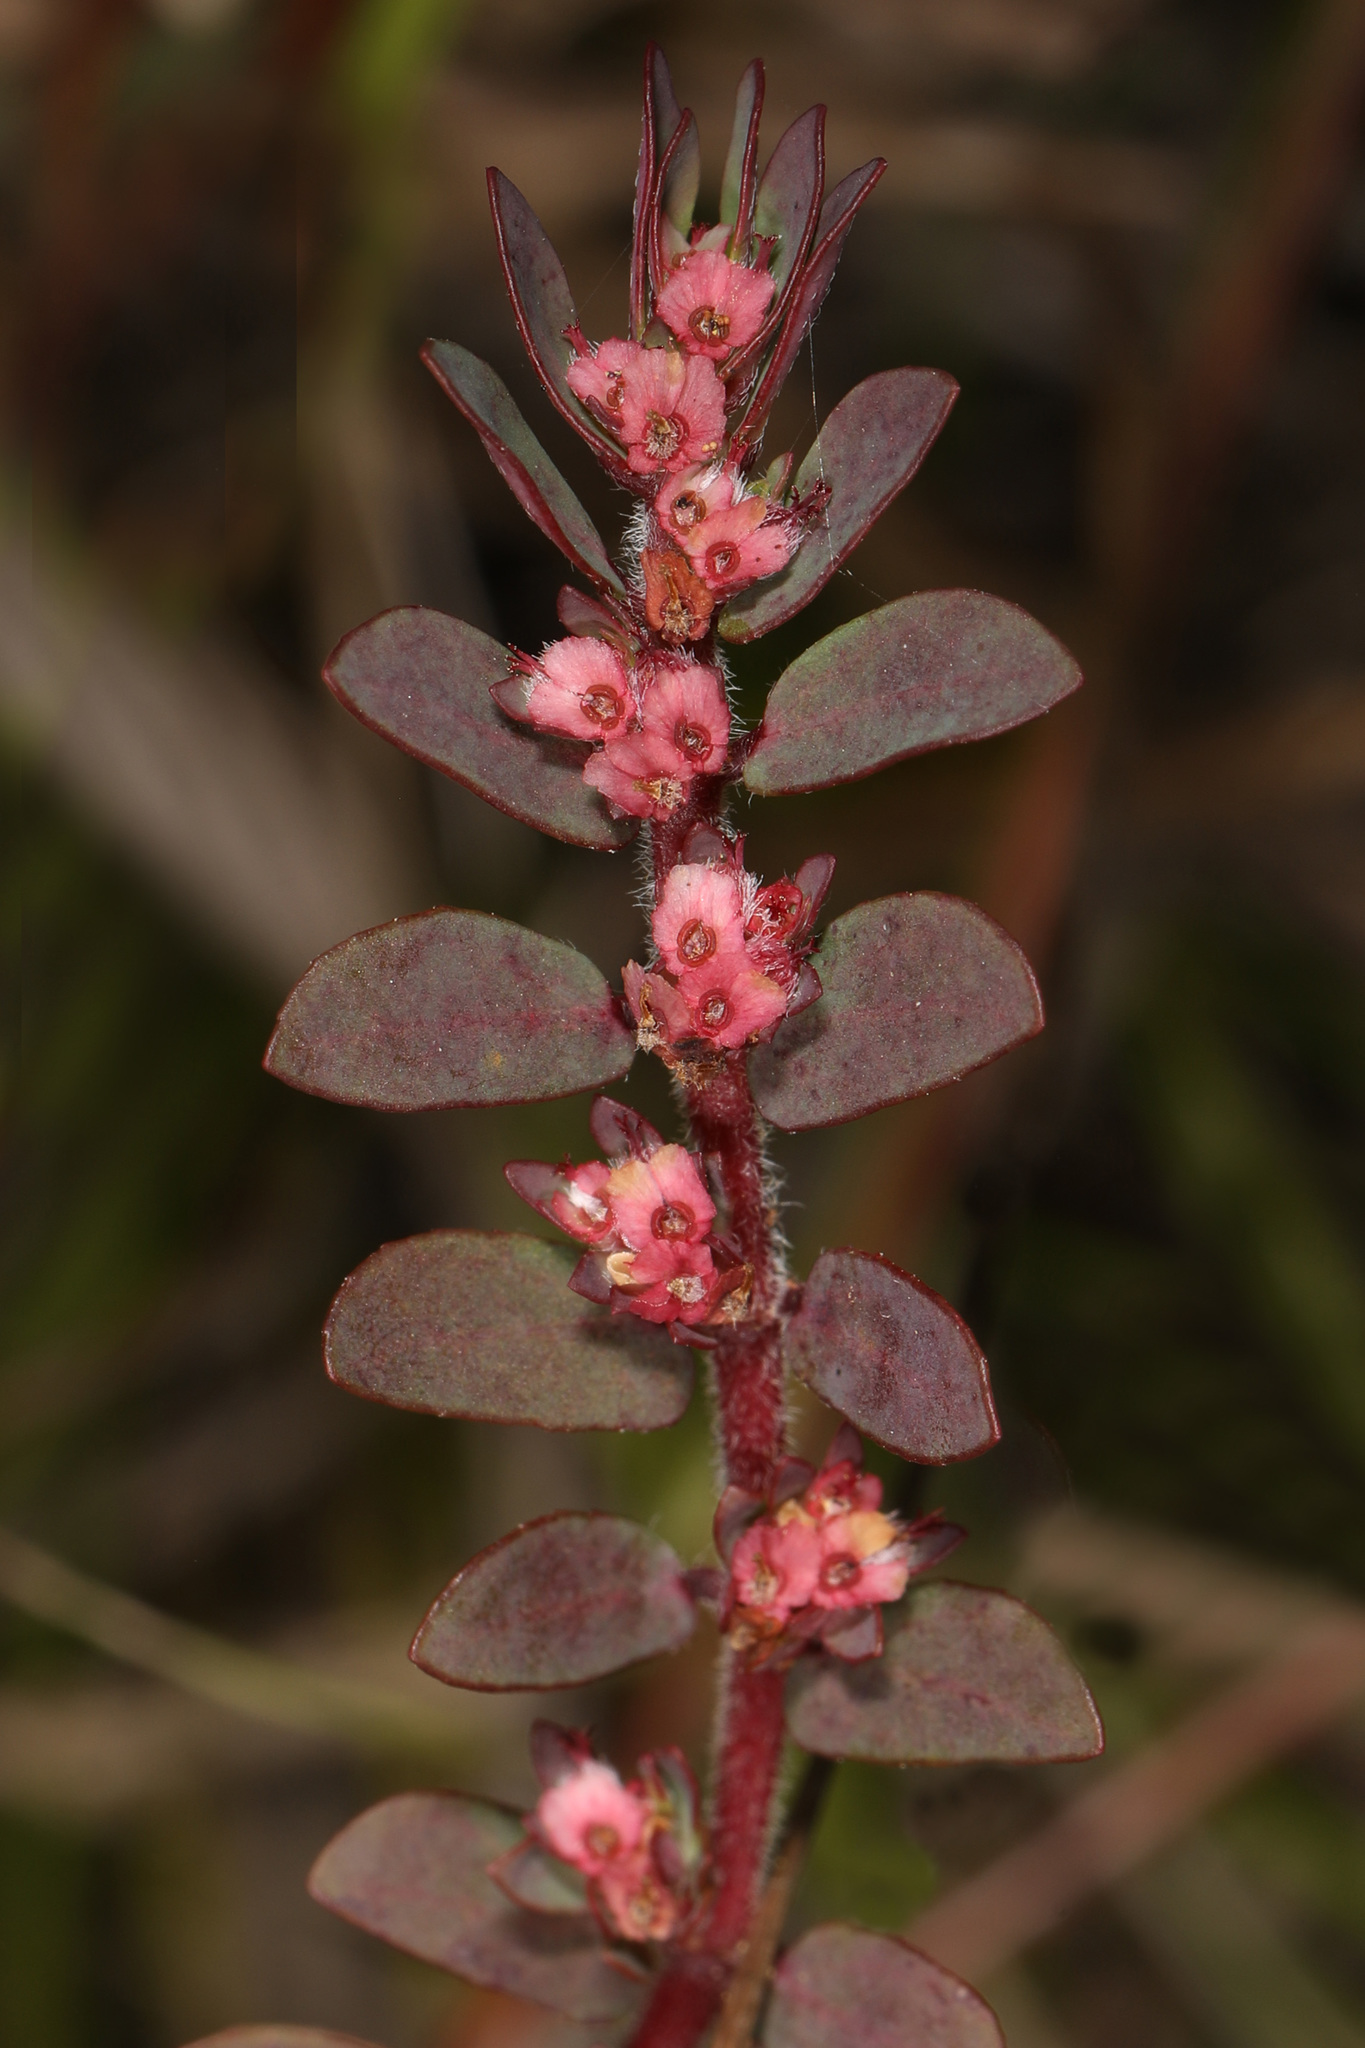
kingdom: Plantae
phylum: Tracheophyta
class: Magnoliopsida
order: Malpighiales
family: Euphorbiaceae
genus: Euphorbia
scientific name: Euphorbia conferta
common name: Everglade key sandmat
